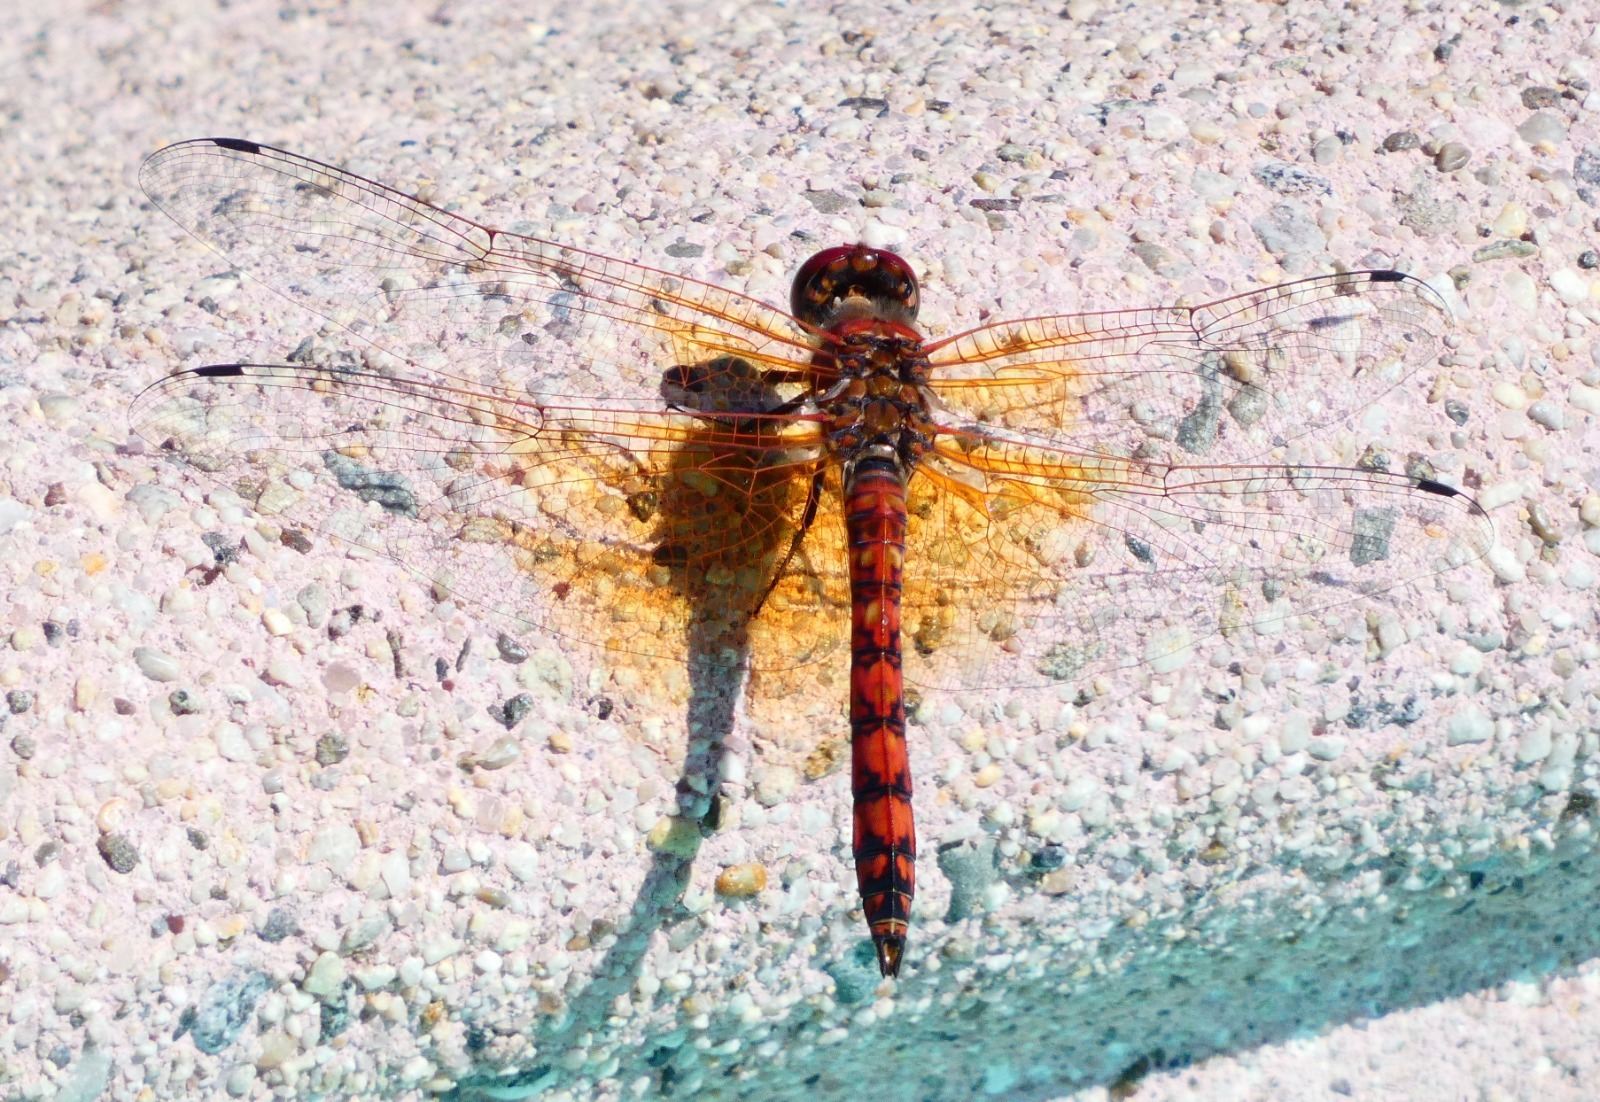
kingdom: Animalia
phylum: Arthropoda
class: Insecta
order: Odonata
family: Libellulidae
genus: Paltothemis
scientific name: Paltothemis lineatipes
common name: Red rock skimmer
